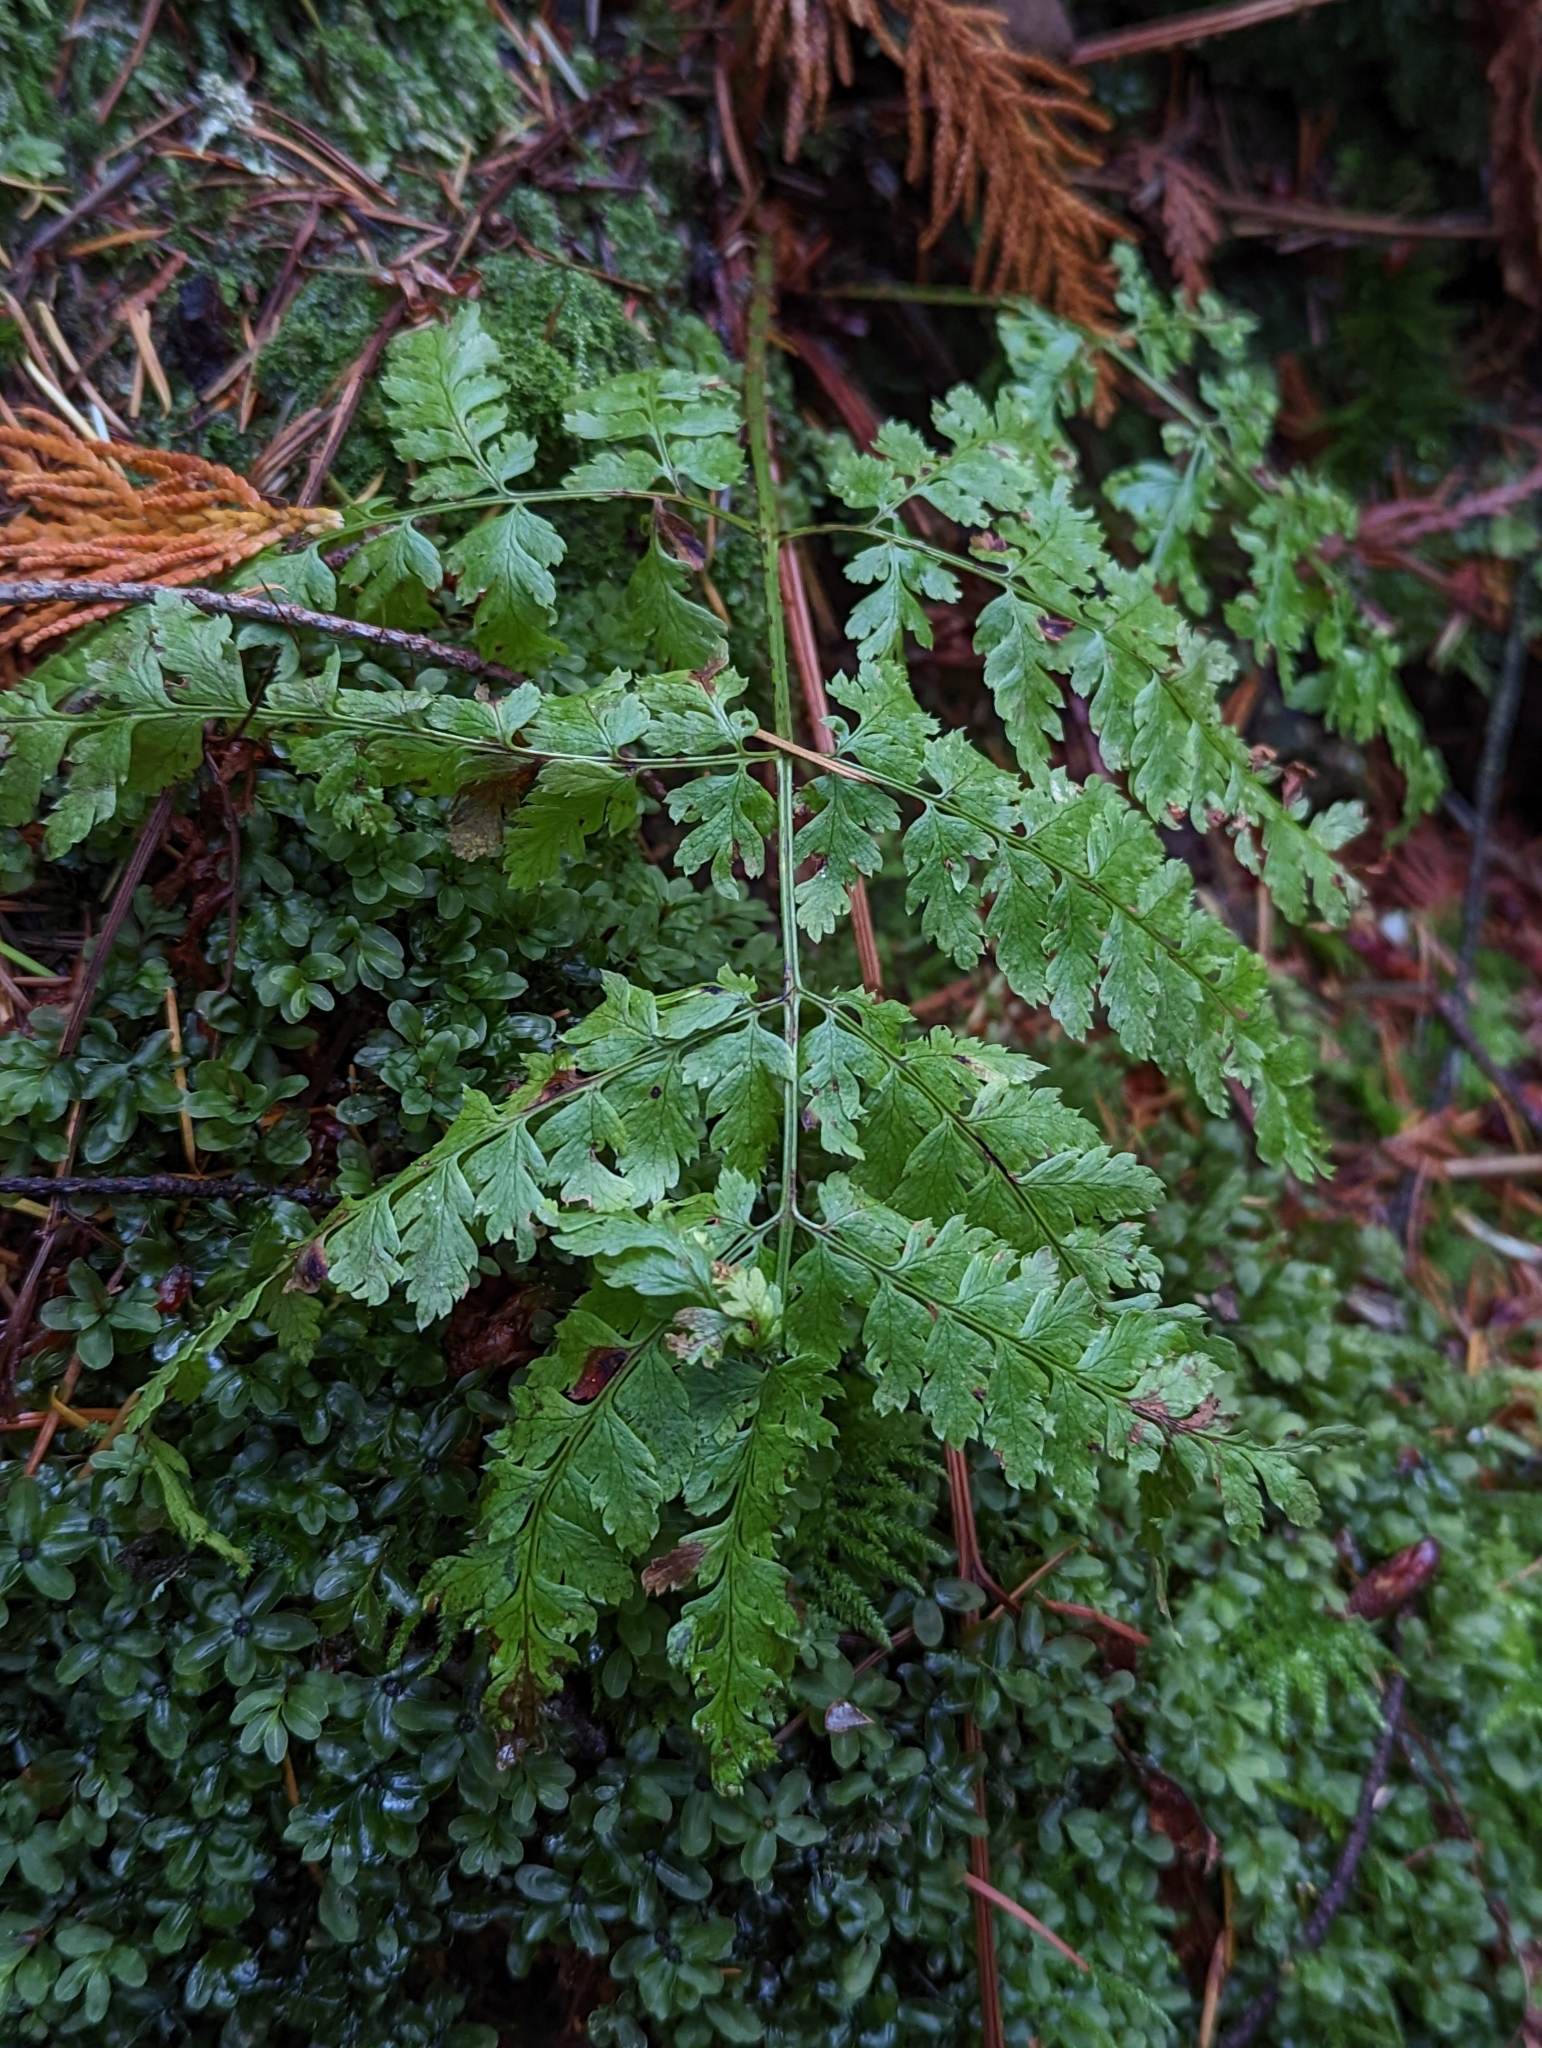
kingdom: Plantae
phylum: Tracheophyta
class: Polypodiopsida
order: Polypodiales
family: Dryopteridaceae
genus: Dryopteris
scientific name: Dryopteris expansa
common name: Northern buckler fern
